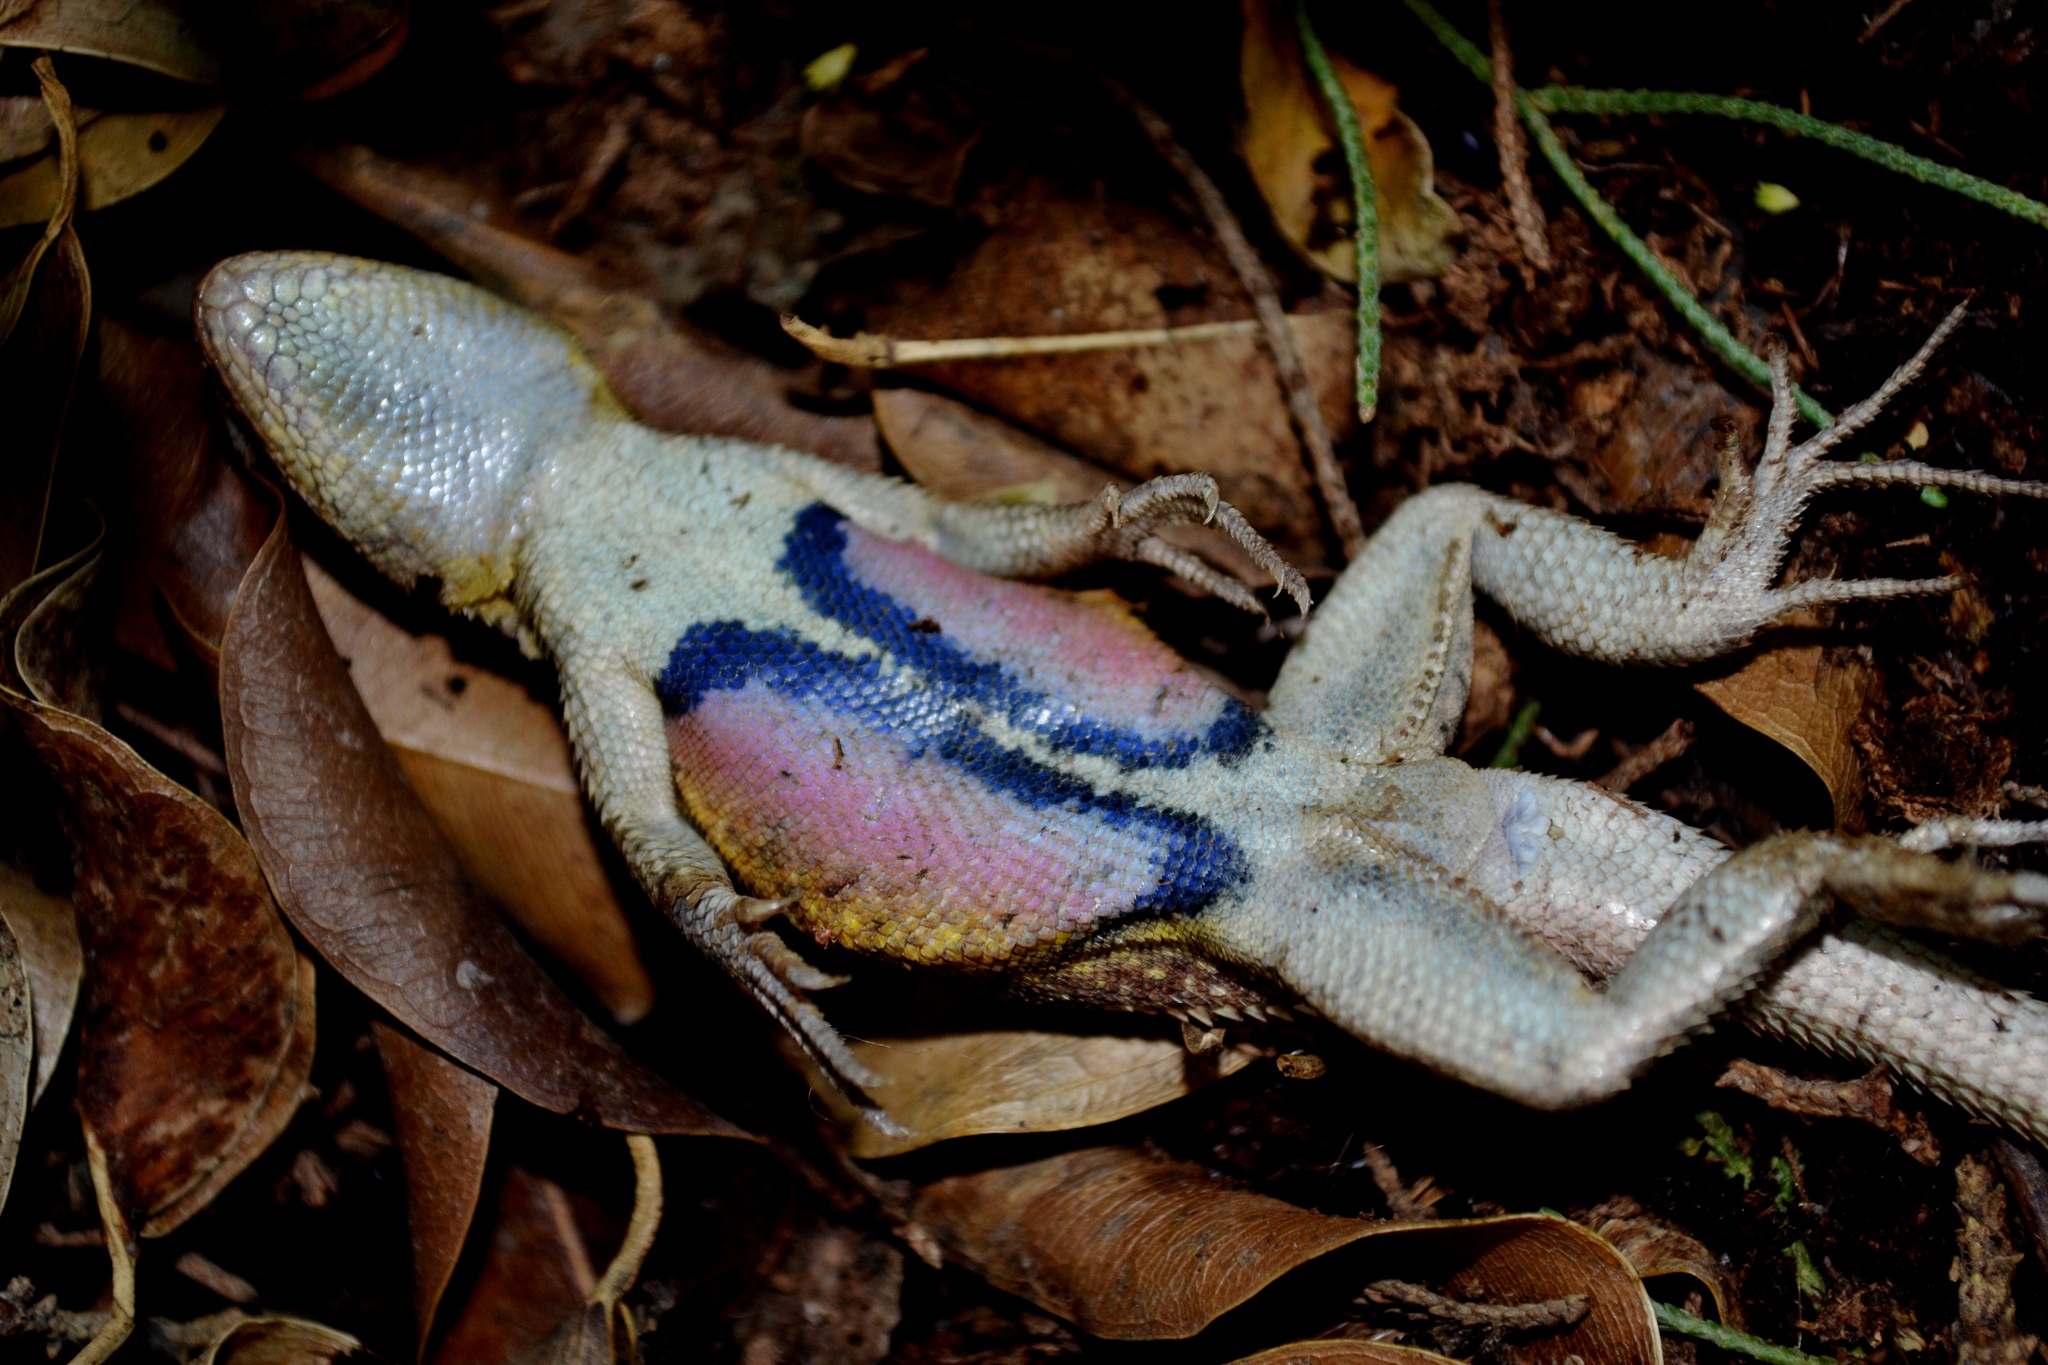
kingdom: Animalia
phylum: Chordata
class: Squamata
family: Phrynosomatidae
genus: Sceloporus
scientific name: Sceloporus variabilis
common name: Rosebelly lizard
